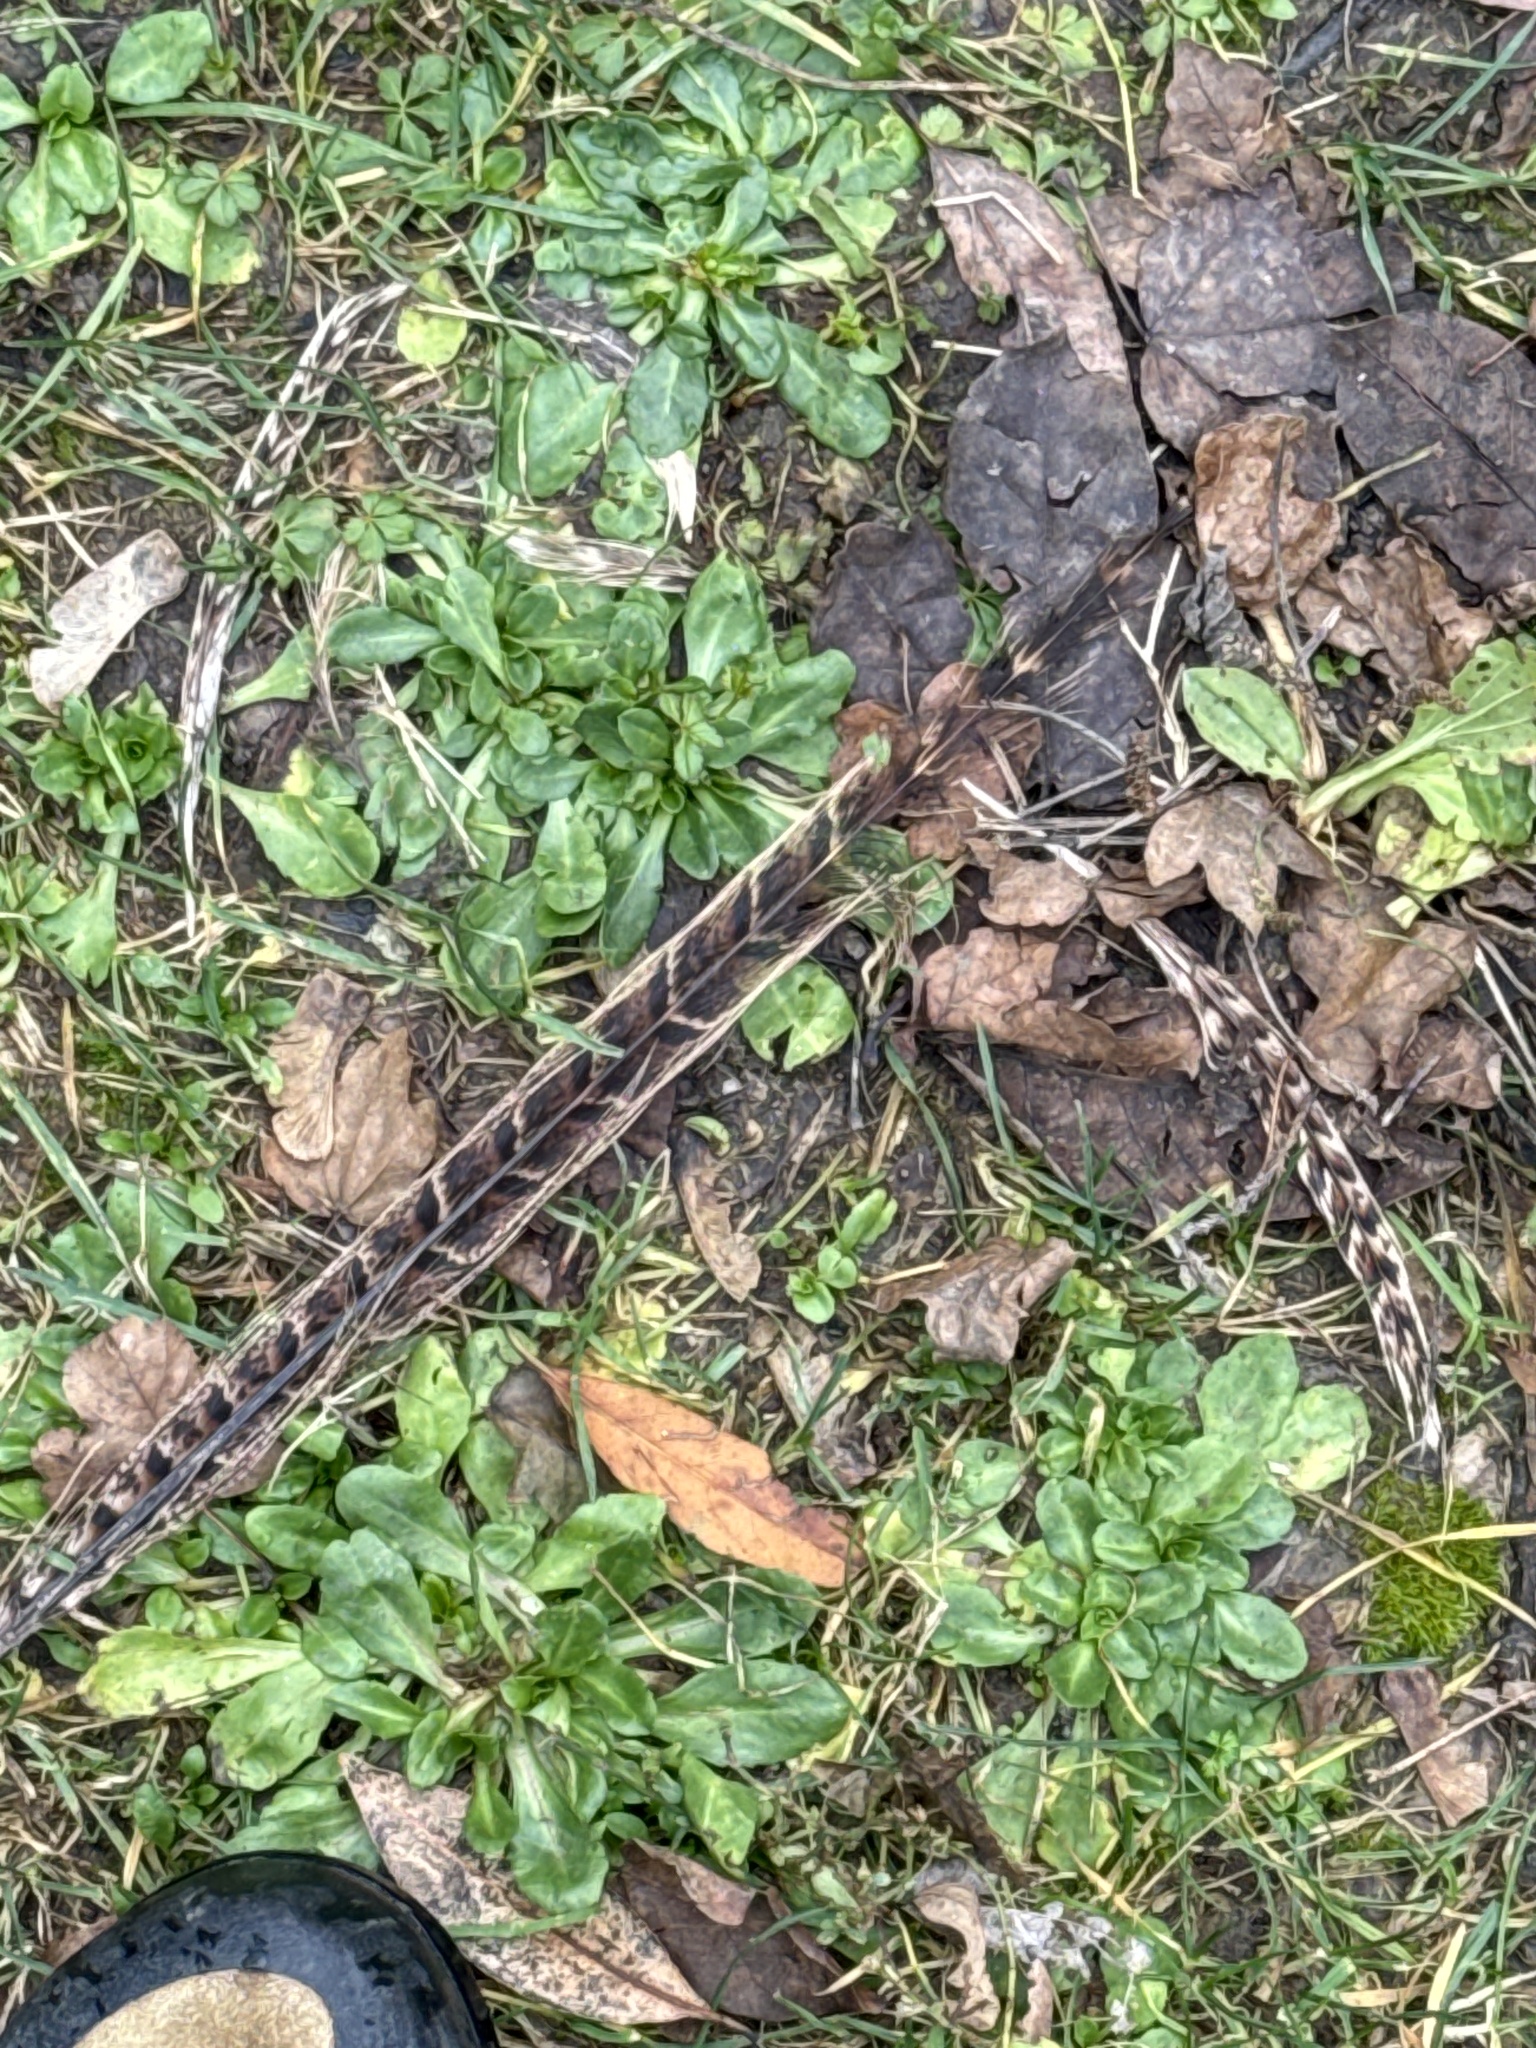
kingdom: Animalia
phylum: Chordata
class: Aves
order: Galliformes
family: Phasianidae
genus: Phasianus
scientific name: Phasianus colchicus
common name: Common pheasant
